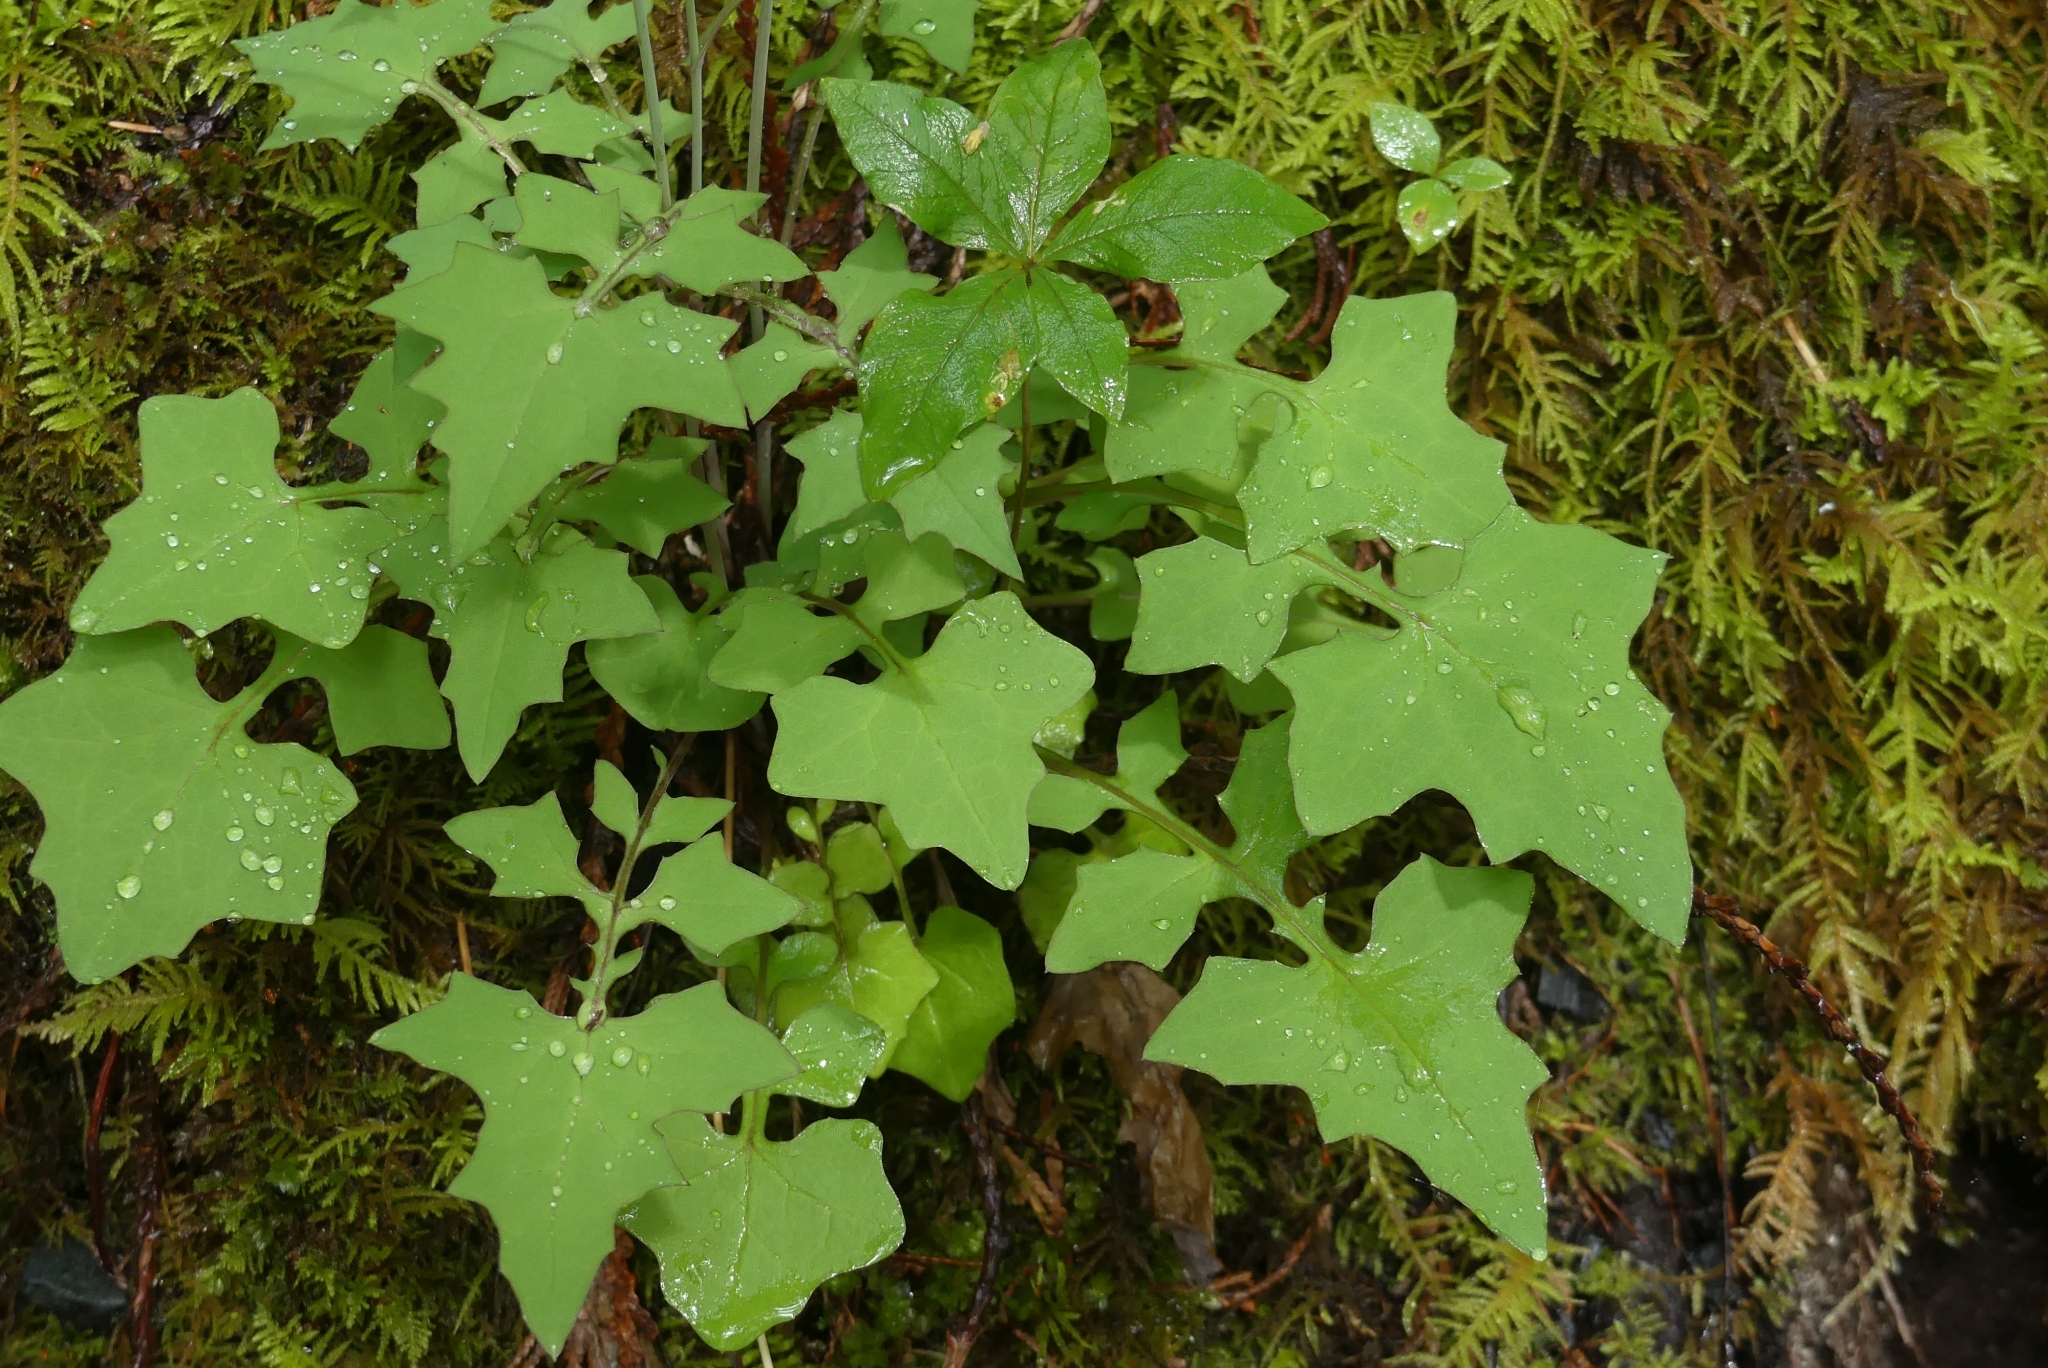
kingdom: Plantae
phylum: Tracheophyta
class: Magnoliopsida
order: Asterales
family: Asteraceae
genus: Mycelis
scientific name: Mycelis muralis
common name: Wall lettuce
